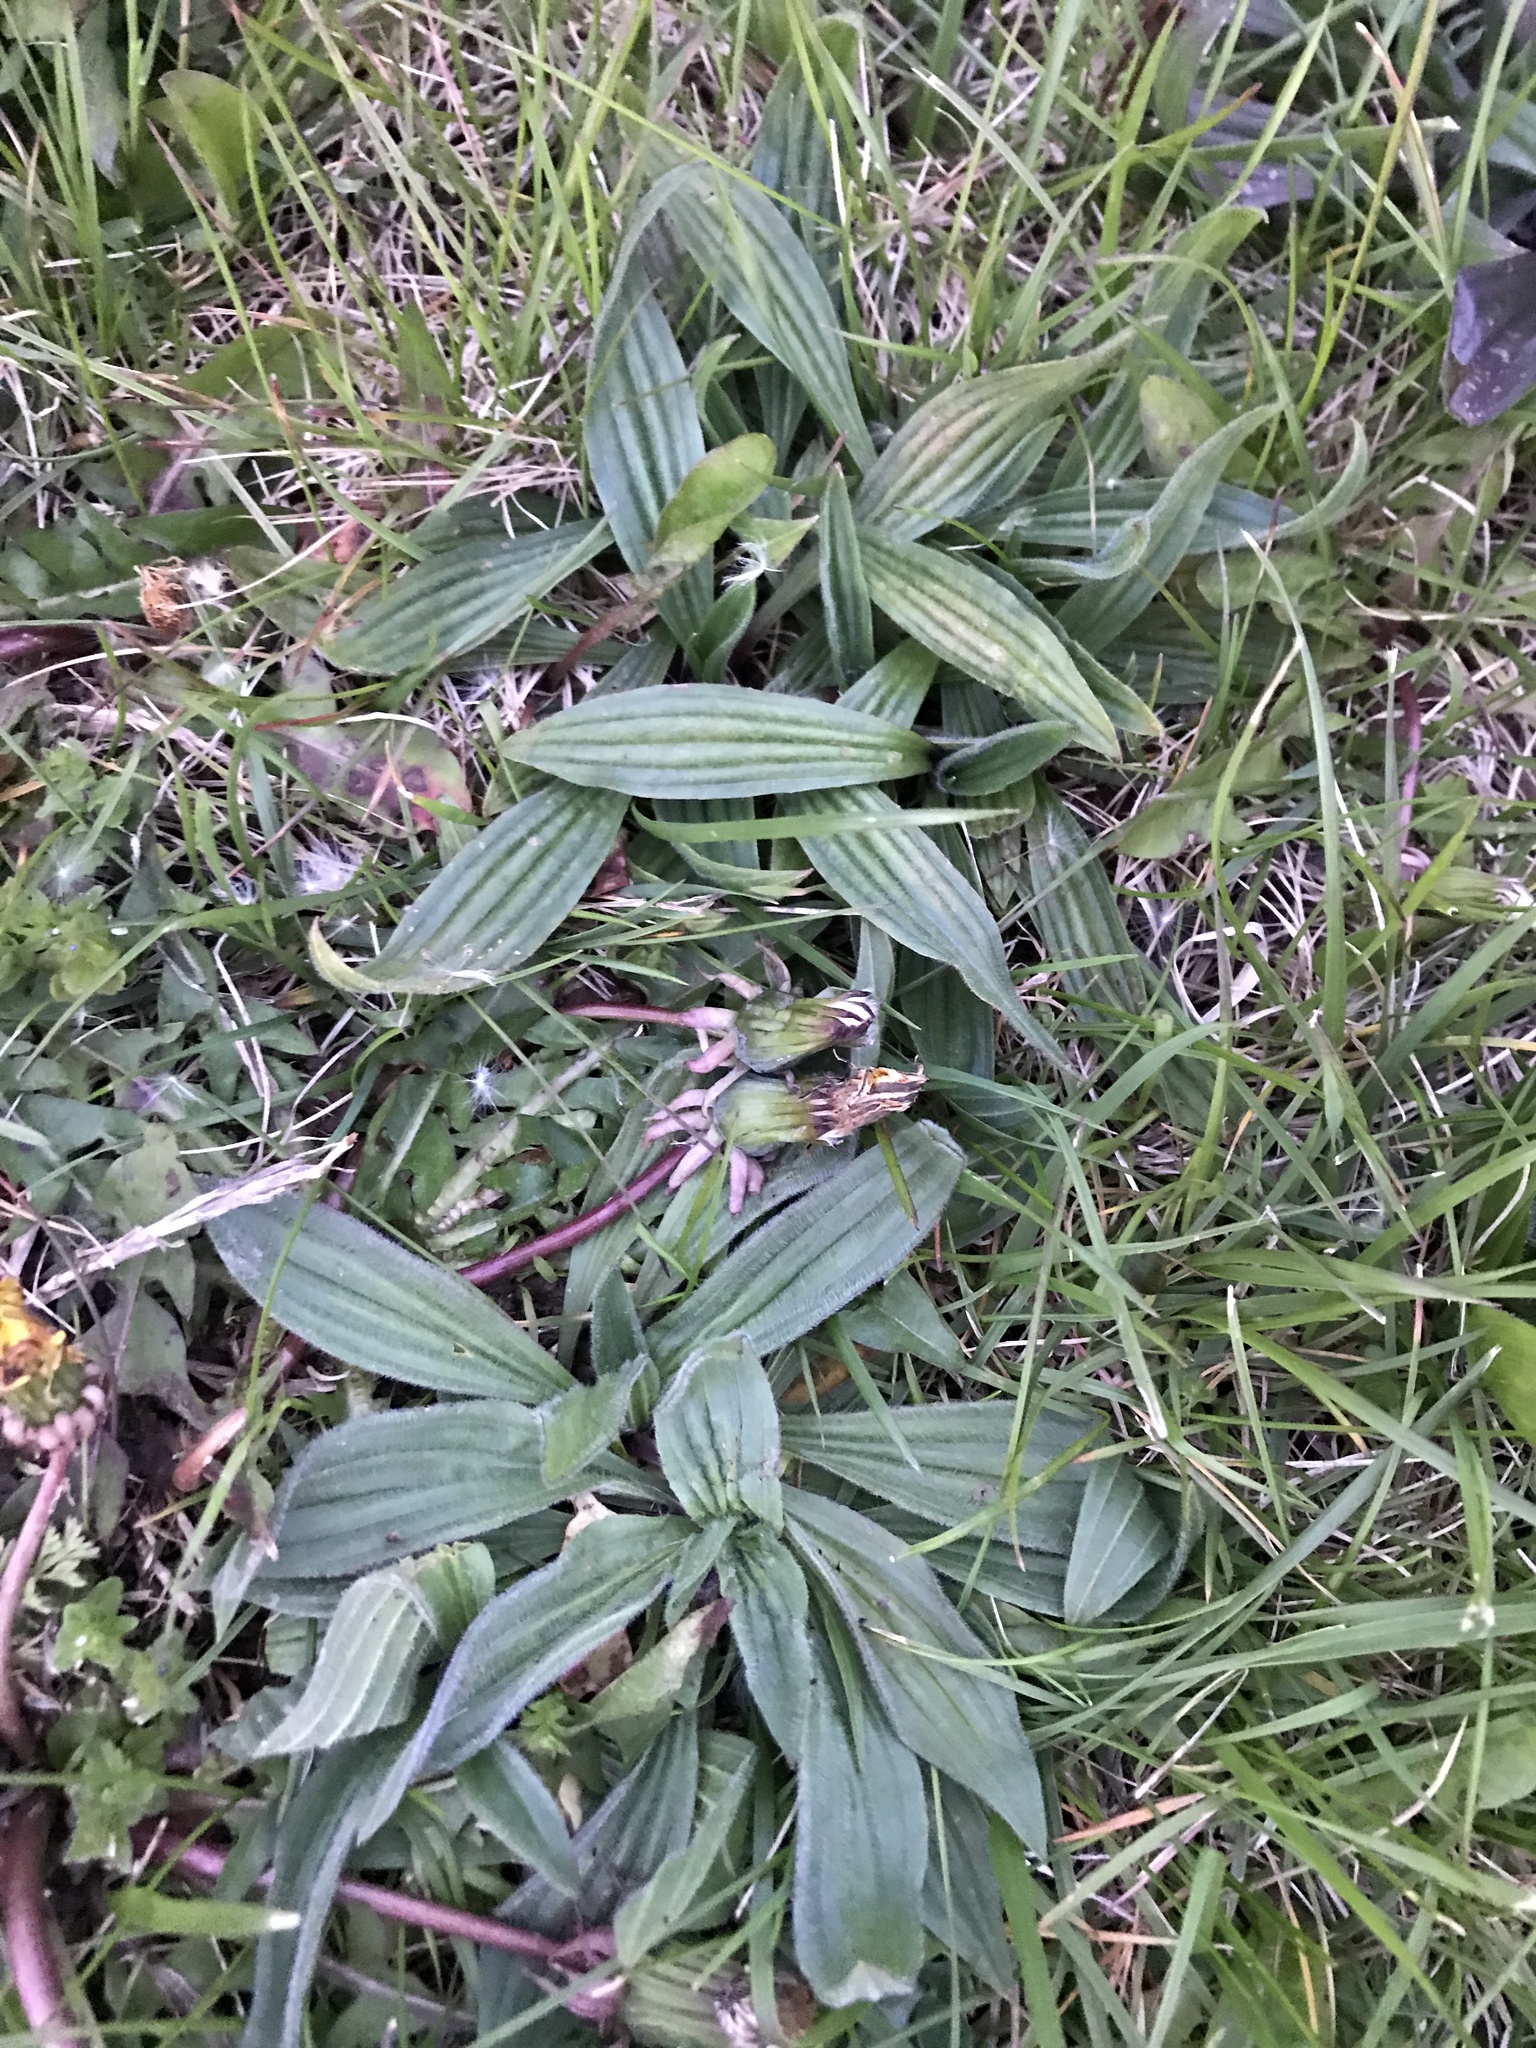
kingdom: Plantae
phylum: Tracheophyta
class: Magnoliopsida
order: Lamiales
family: Plantaginaceae
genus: Plantago
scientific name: Plantago lanceolata
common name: Ribwort plantain
